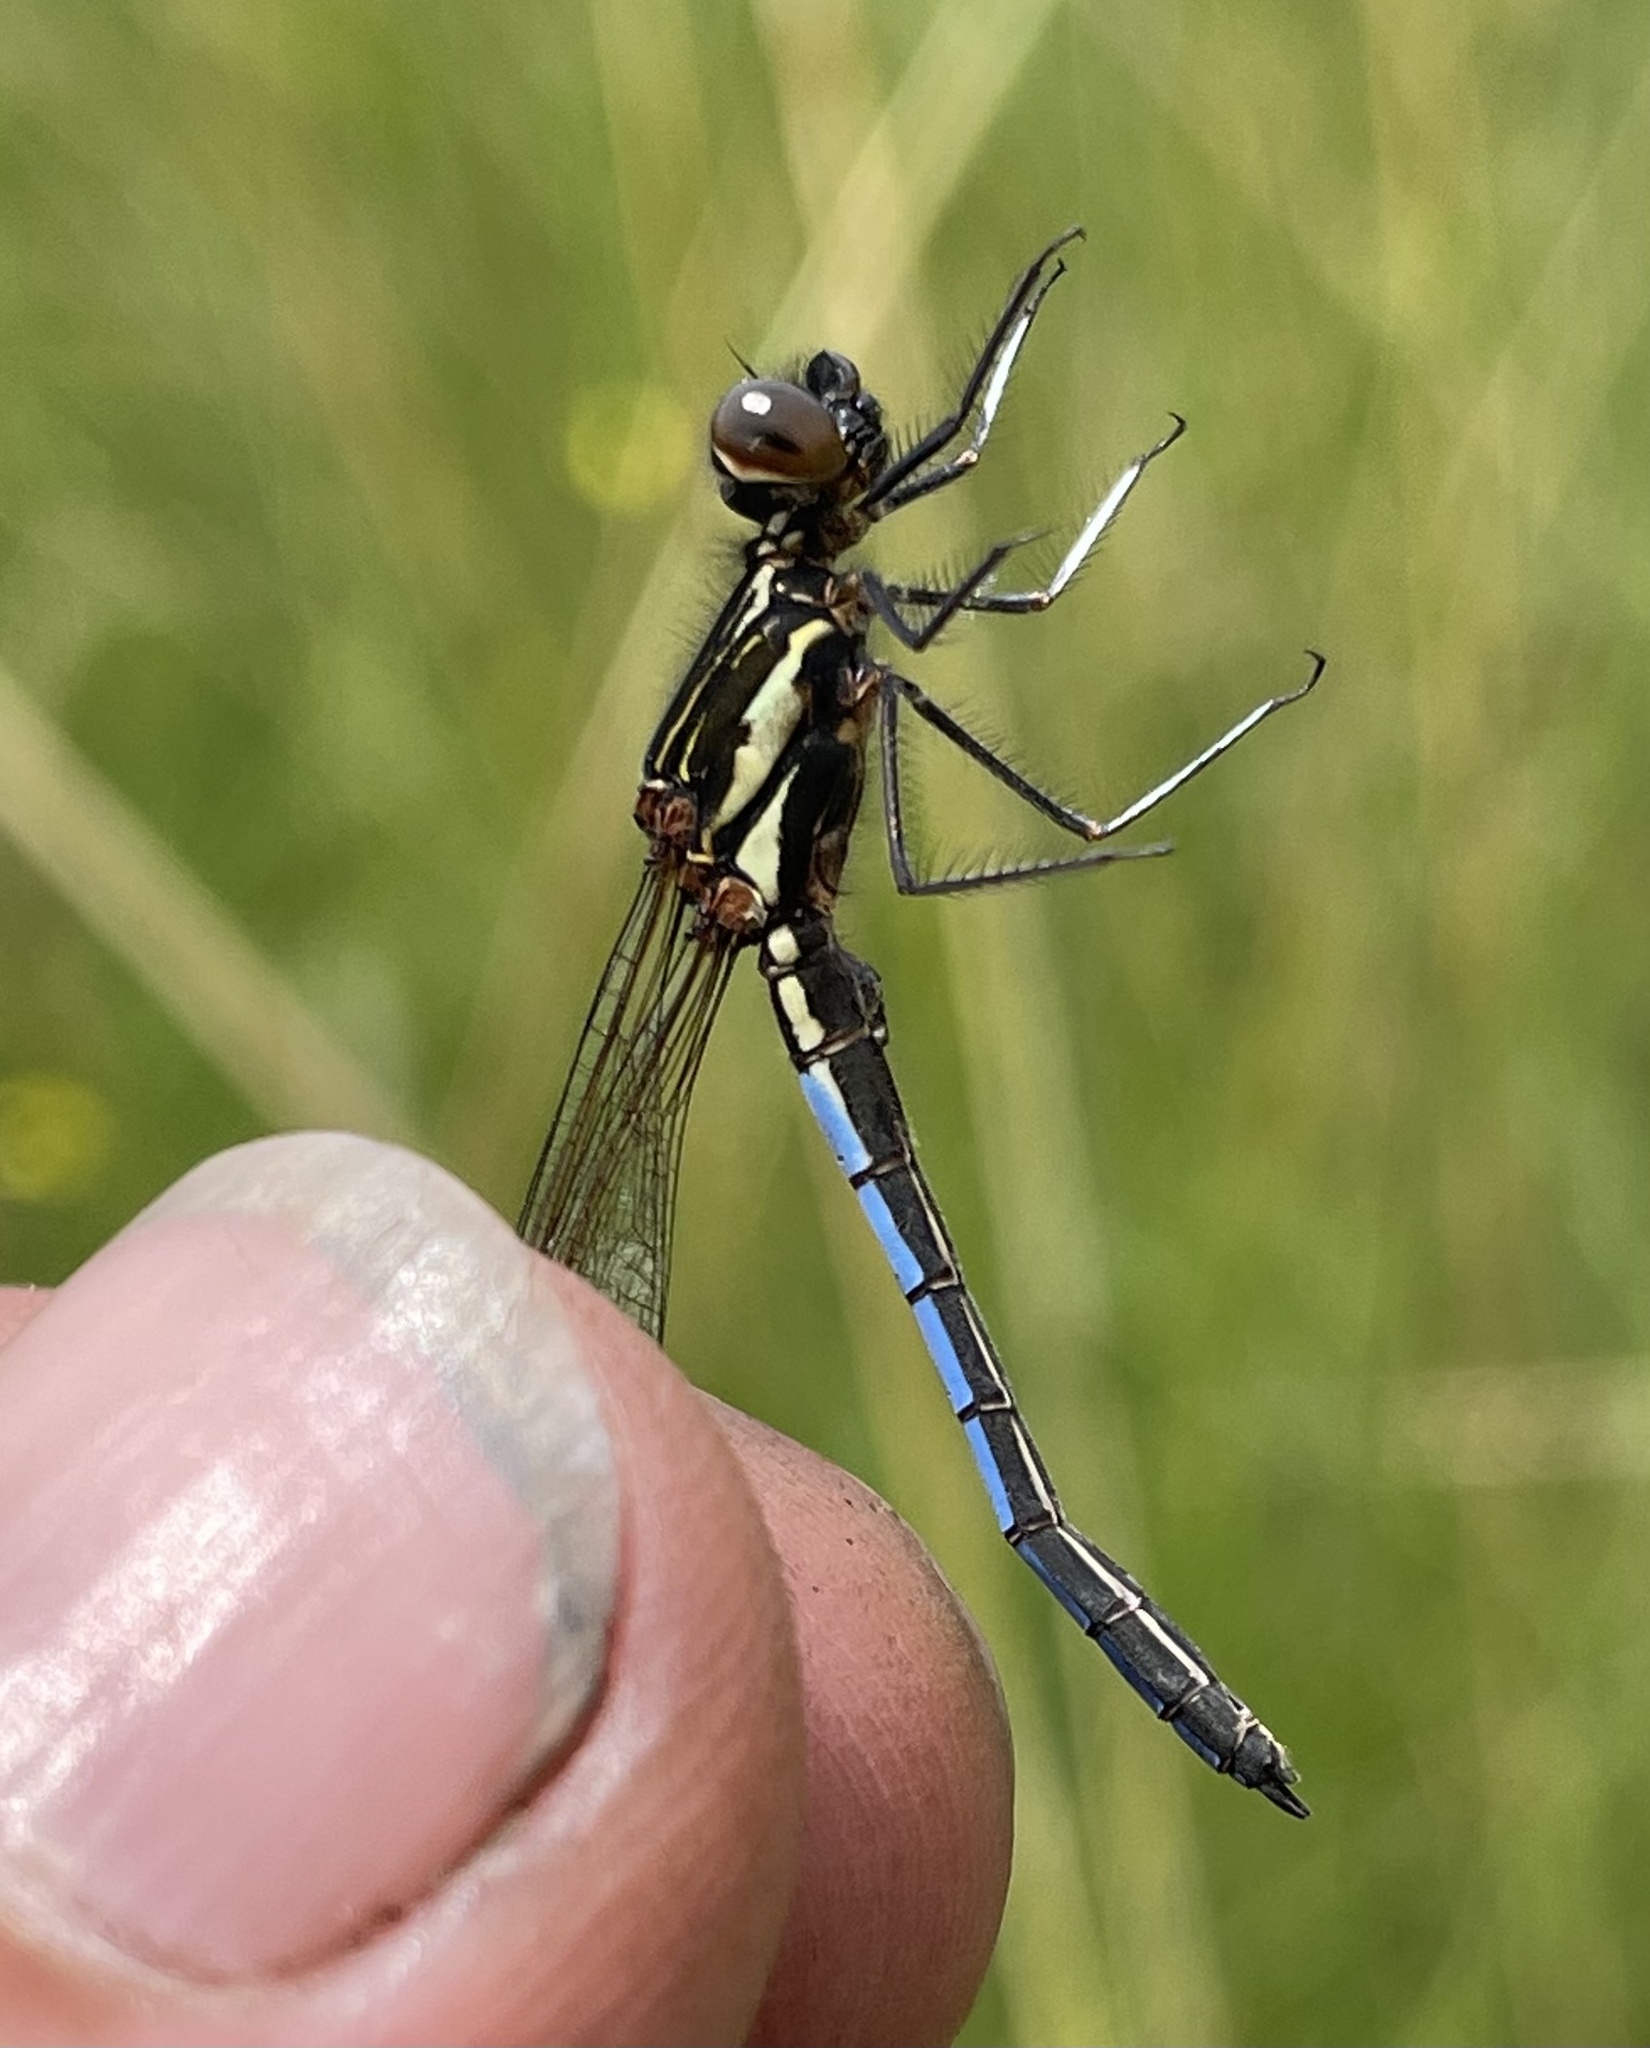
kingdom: Animalia
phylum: Arthropoda
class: Insecta
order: Odonata
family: Chlorocyphidae
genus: Platycypha
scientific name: Platycypha bamptoni
